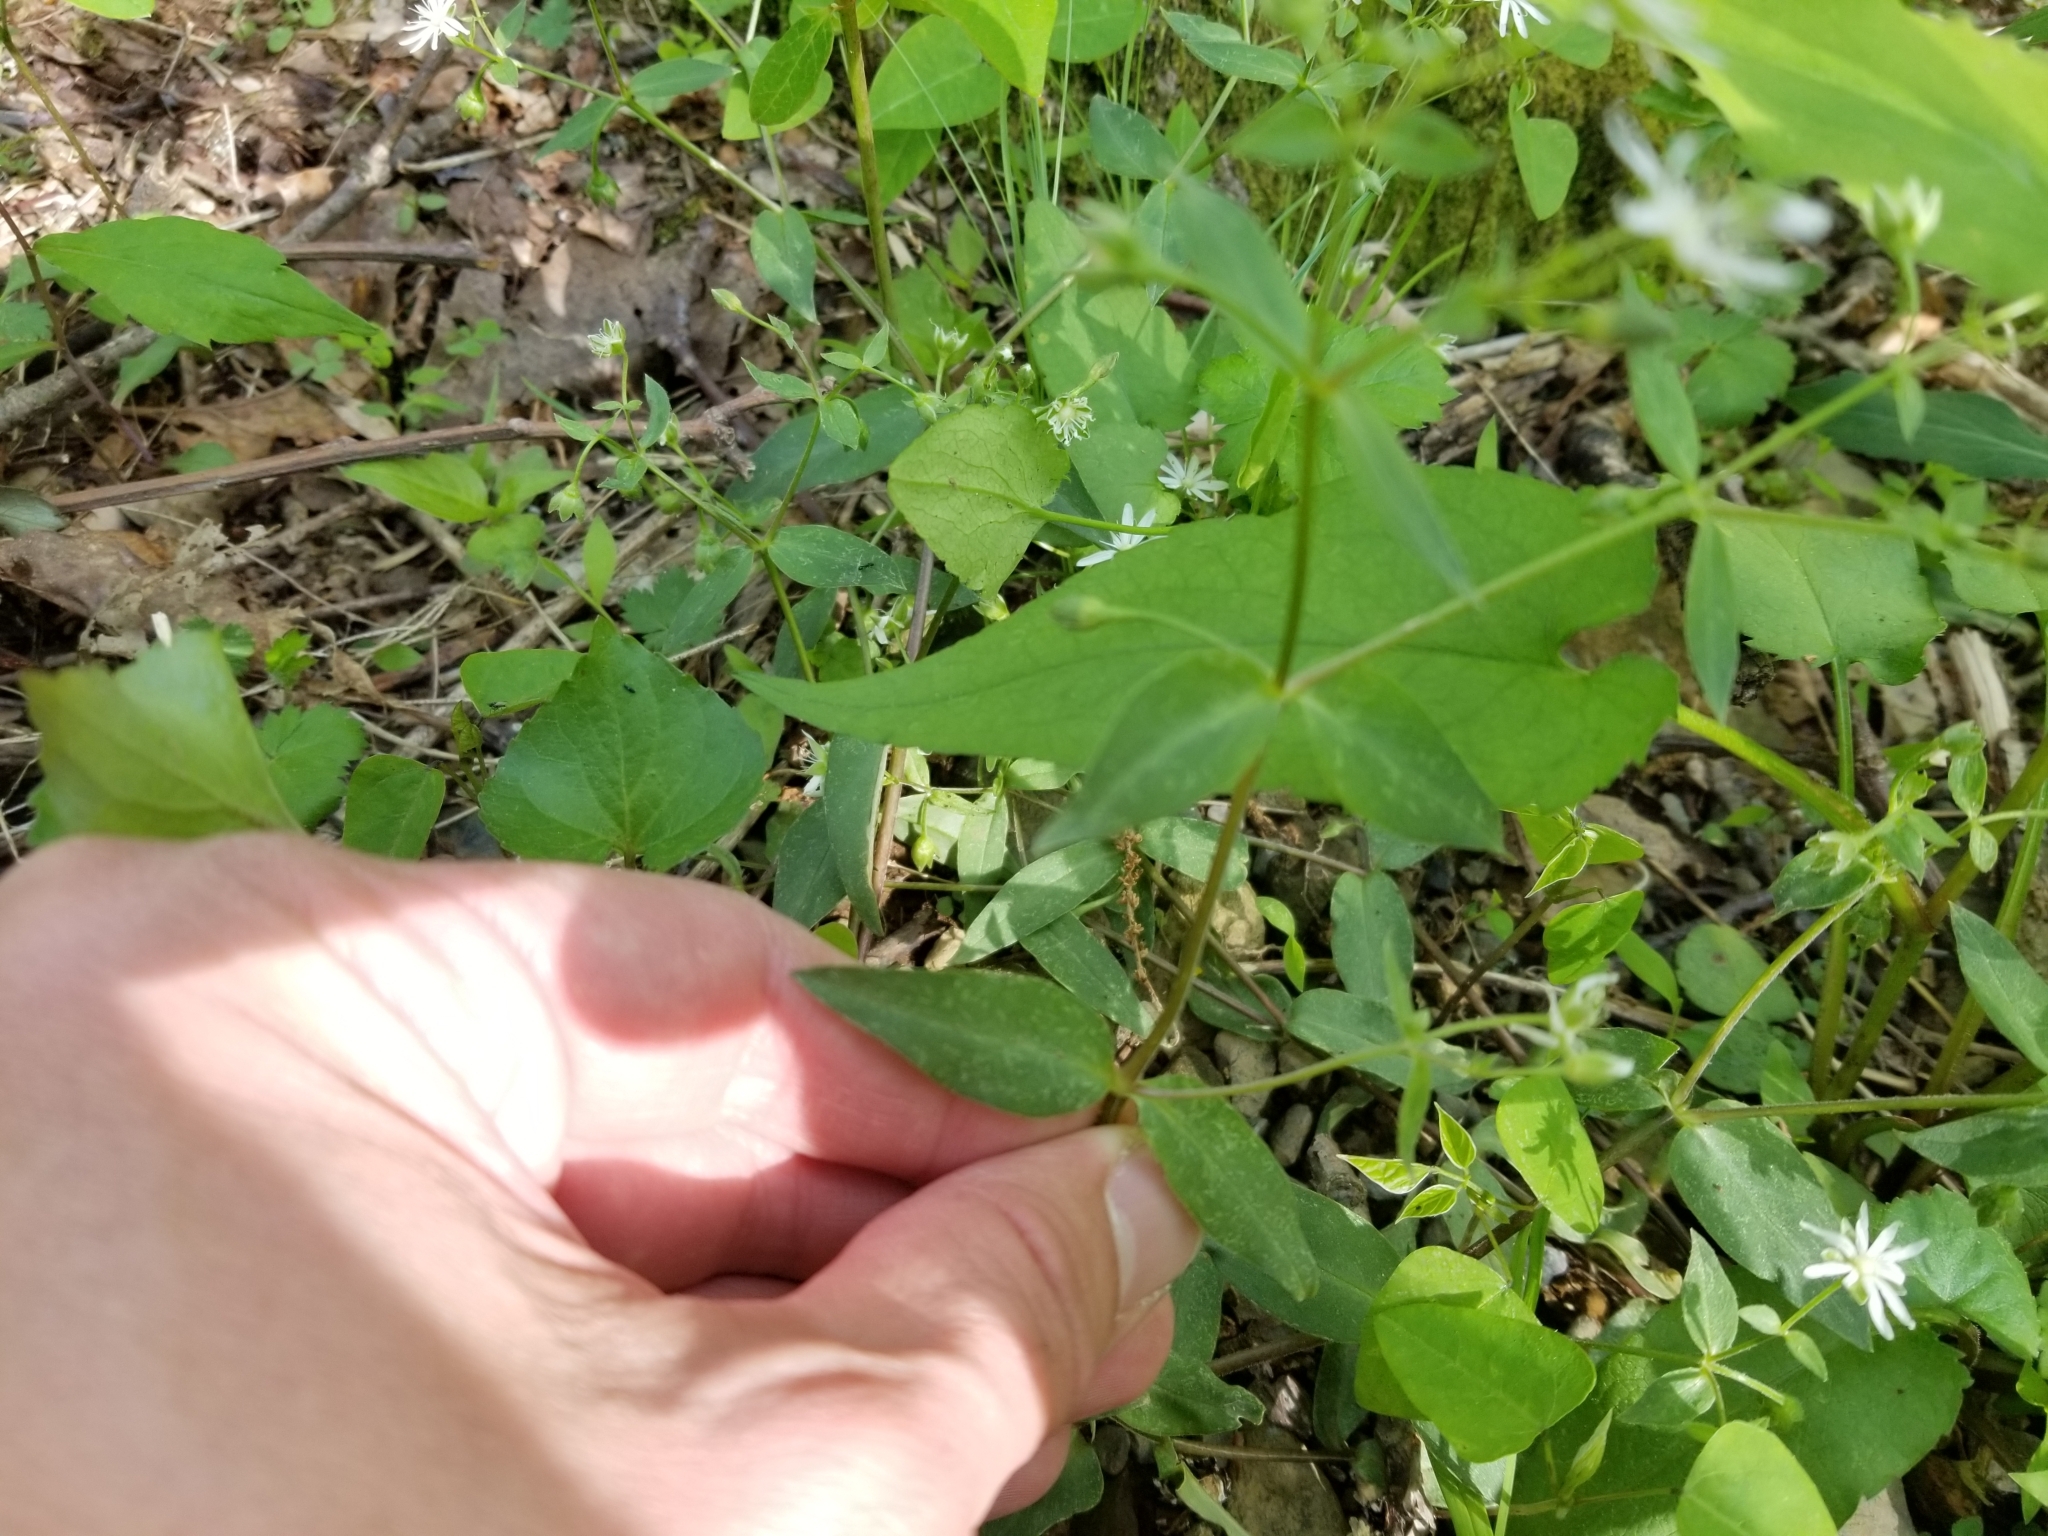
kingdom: Plantae
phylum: Tracheophyta
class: Magnoliopsida
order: Caryophyllales
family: Caryophyllaceae
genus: Stellaria
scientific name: Stellaria pubera
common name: Star chickweed
